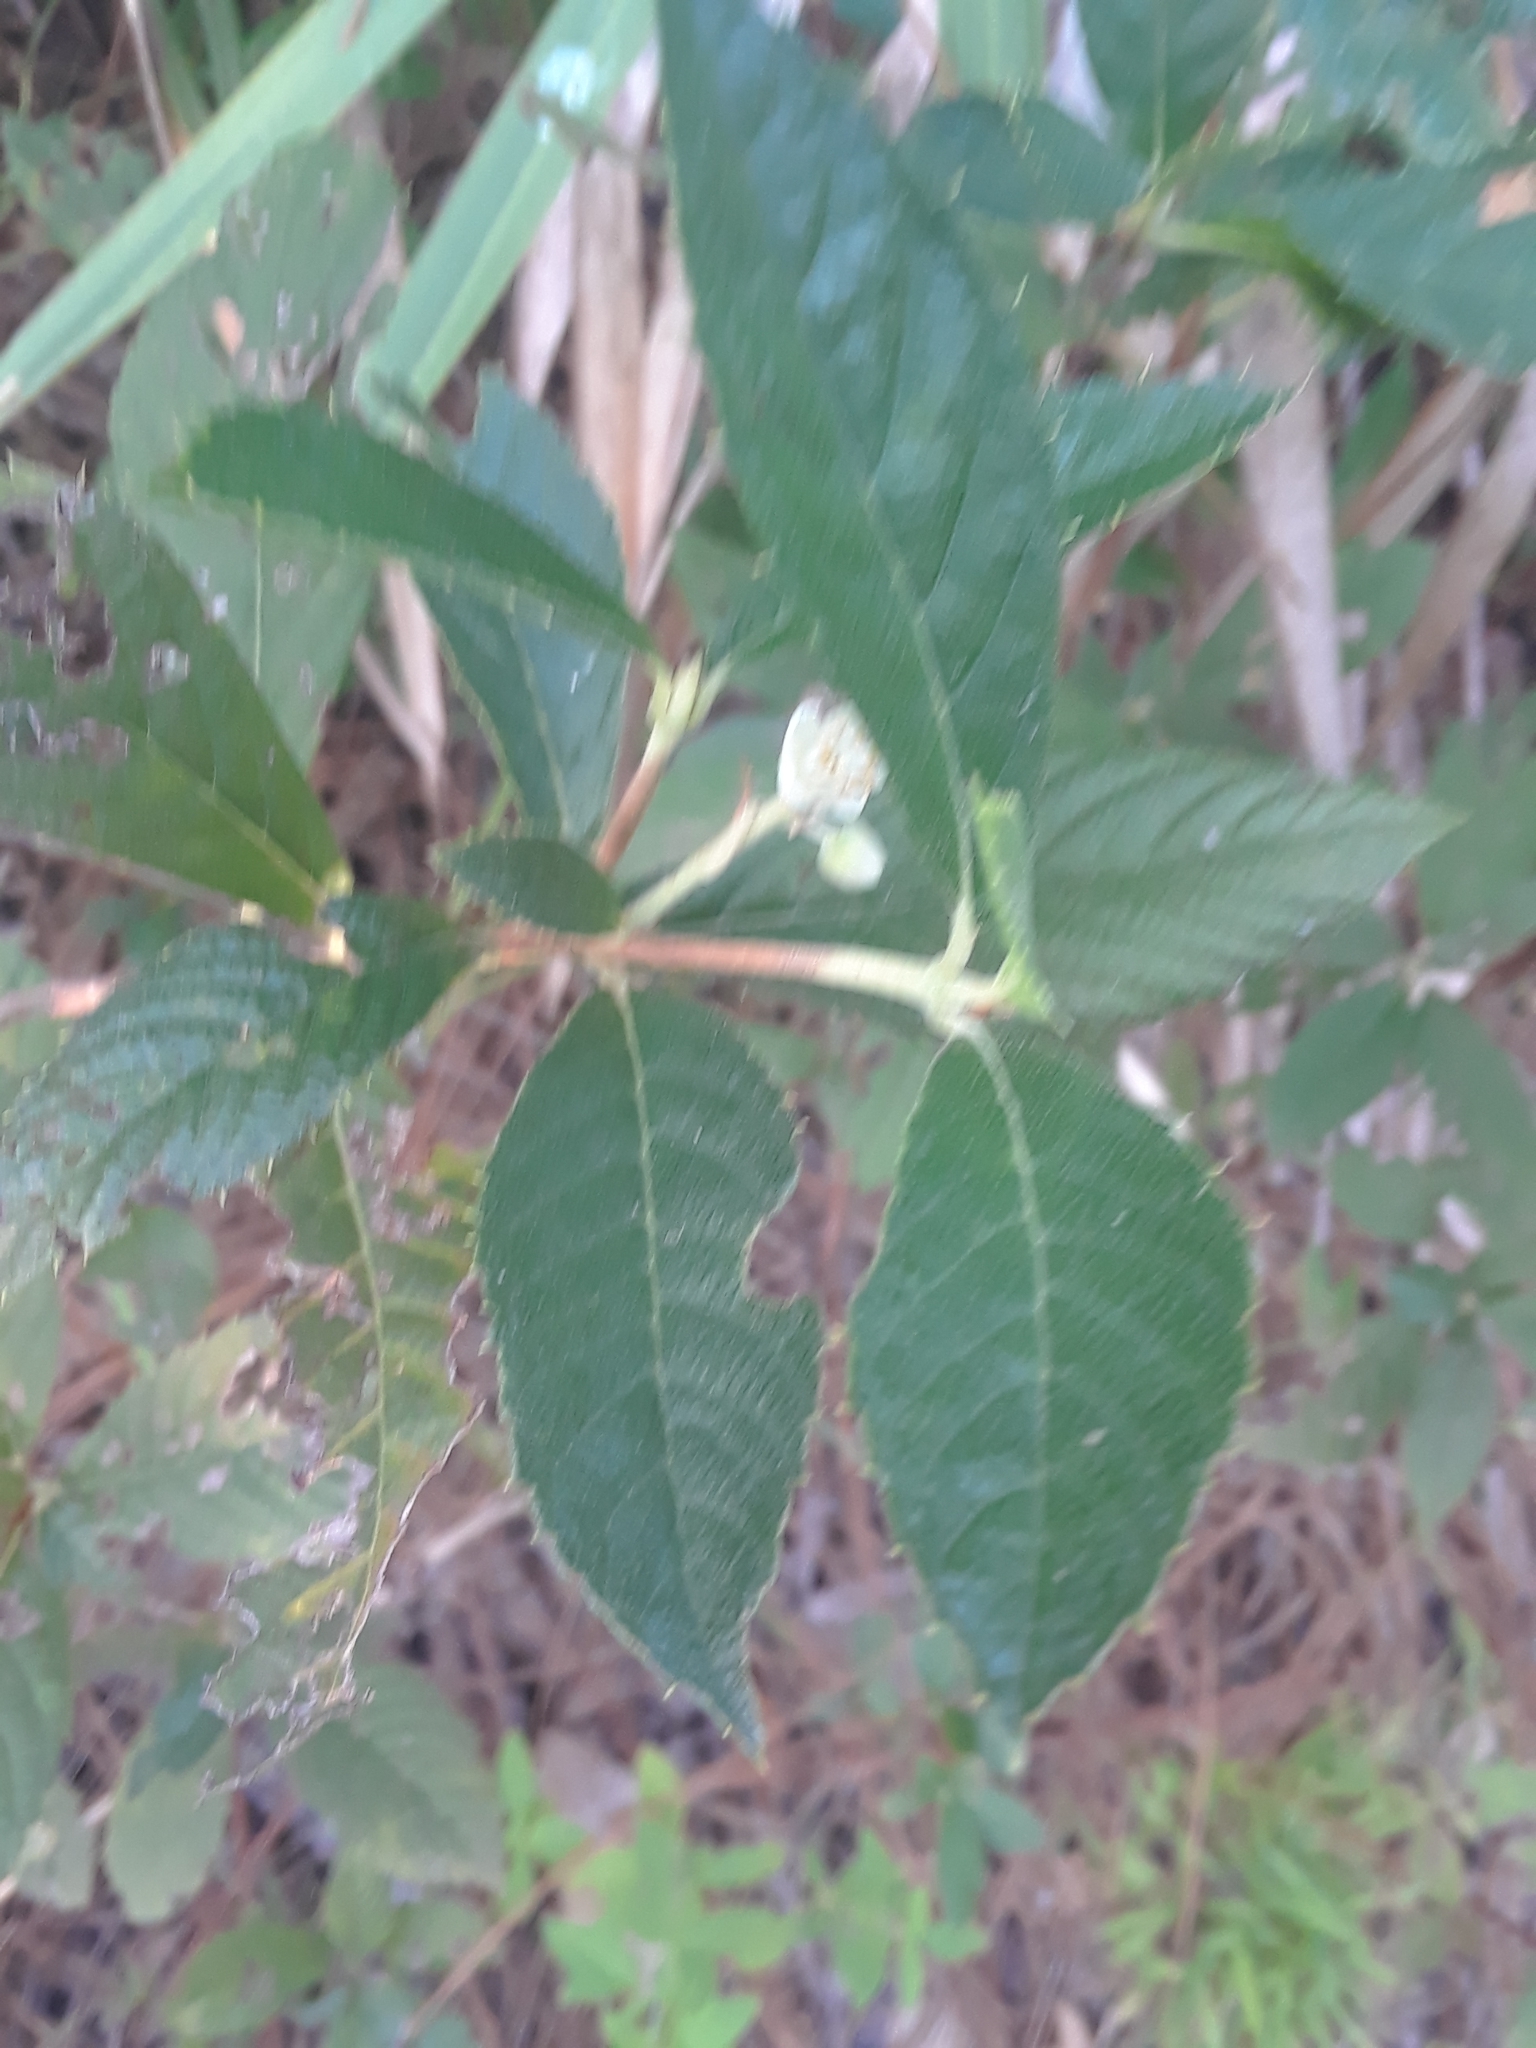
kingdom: Plantae
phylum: Tracheophyta
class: Magnoliopsida
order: Ericales
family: Clethraceae
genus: Clethra
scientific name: Clethra alnifolia
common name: Sweet pepperbush
